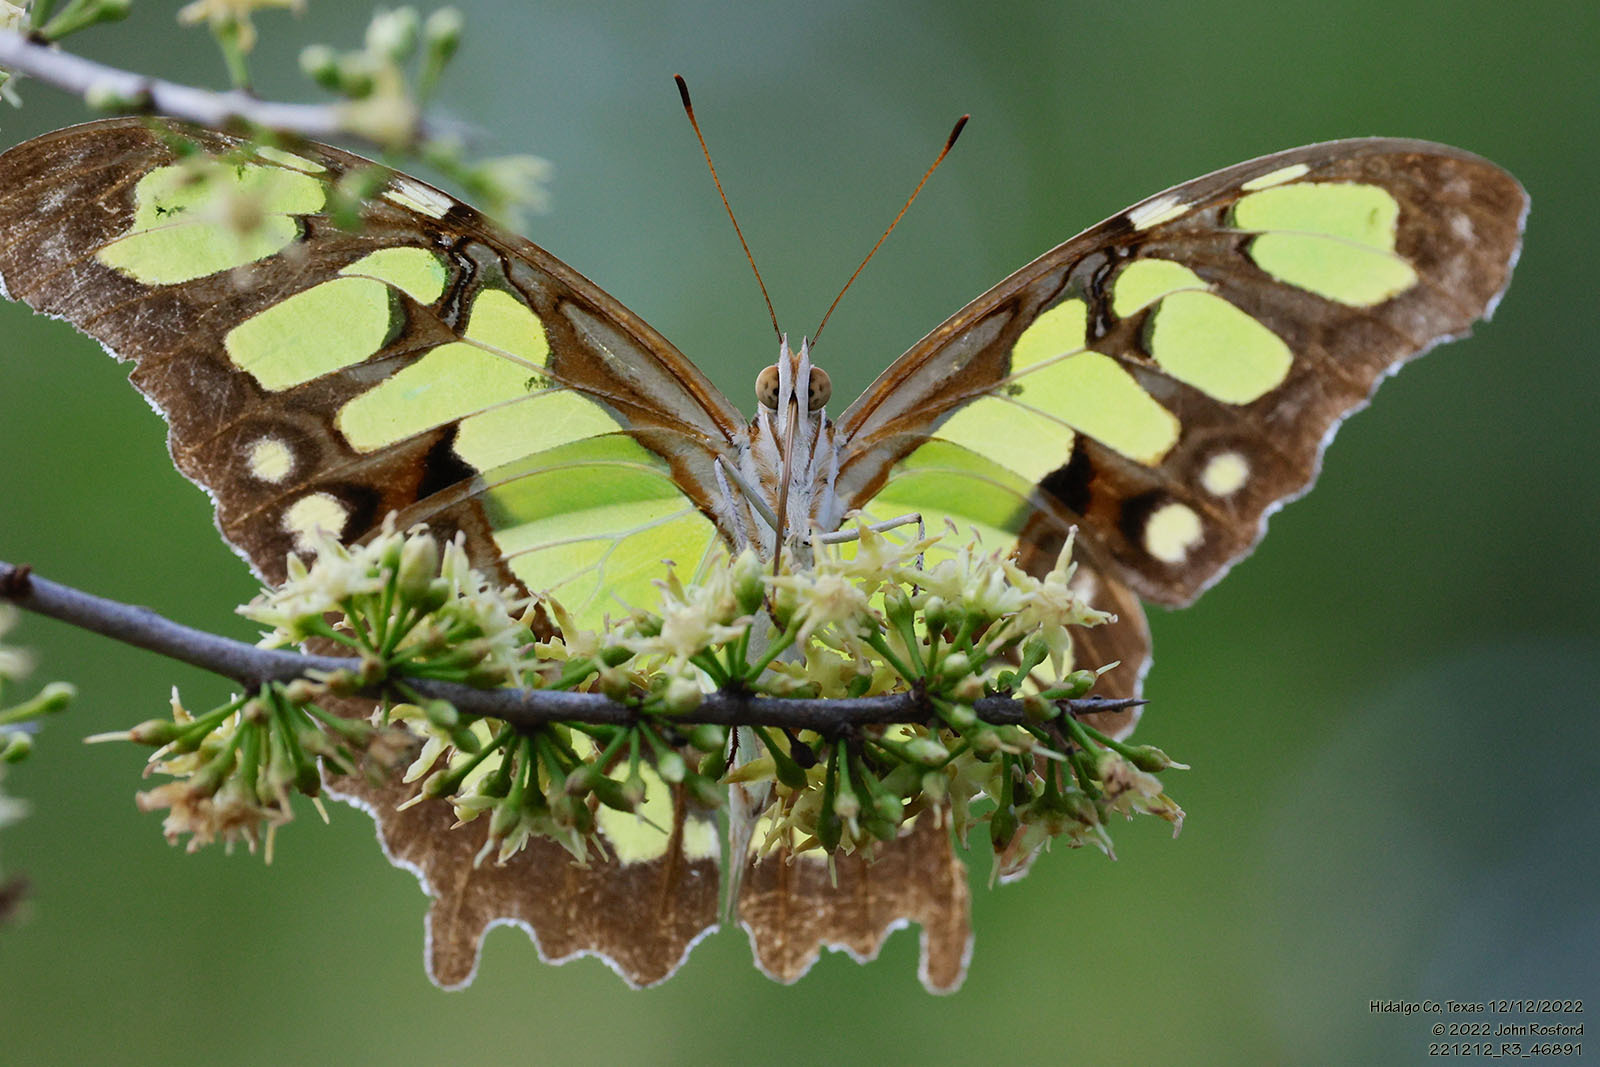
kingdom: Animalia
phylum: Arthropoda
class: Insecta
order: Lepidoptera
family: Nymphalidae
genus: Siproeta
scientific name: Siproeta stelenes
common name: Malachite
